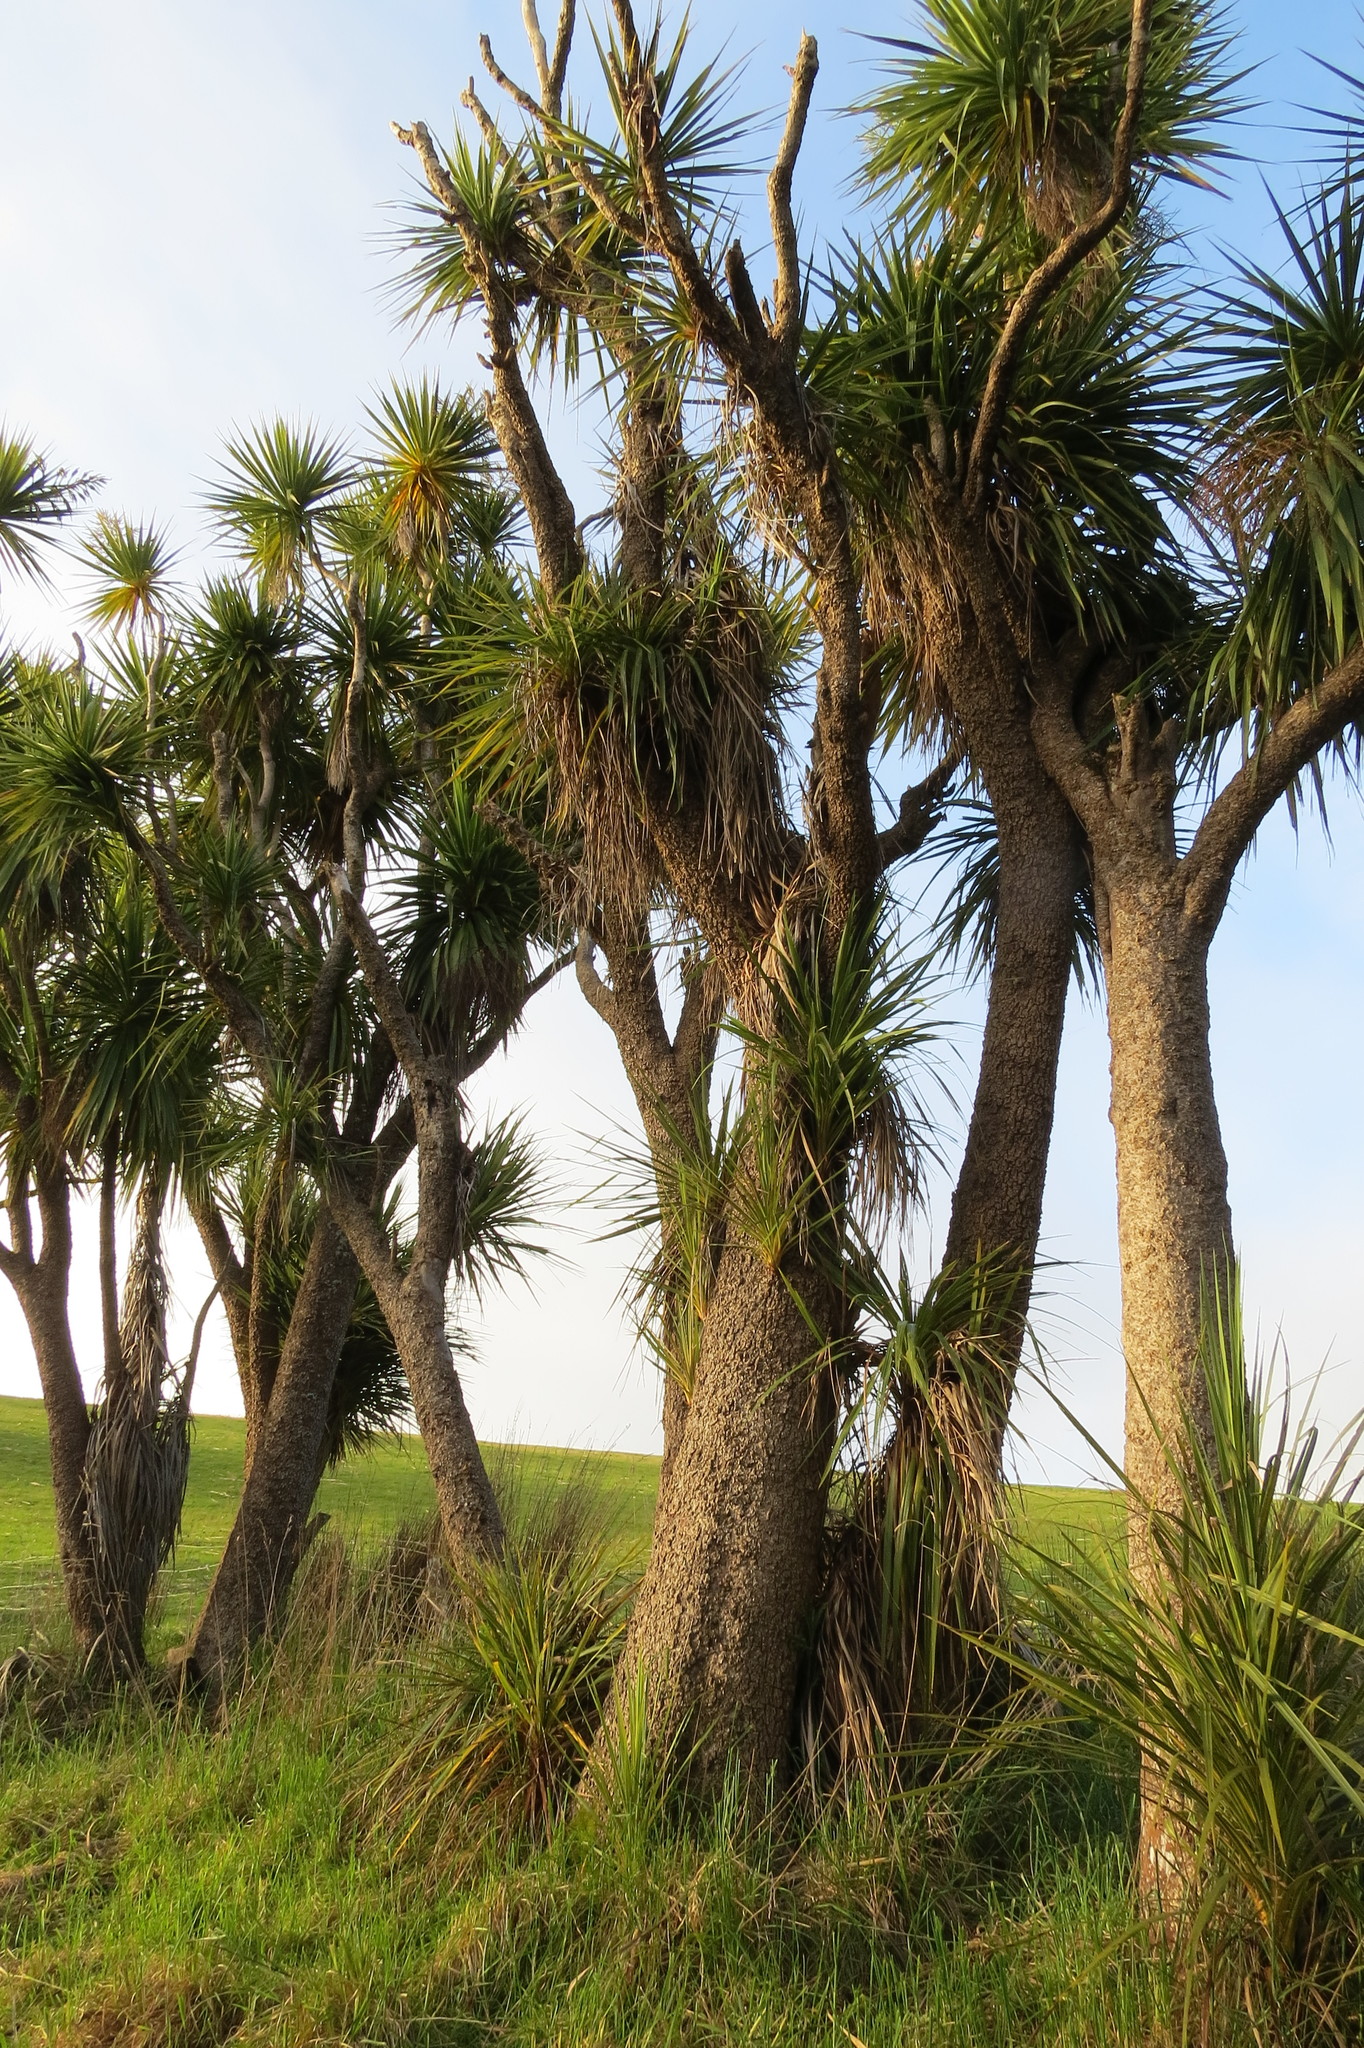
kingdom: Plantae
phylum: Tracheophyta
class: Liliopsida
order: Asparagales
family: Asparagaceae
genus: Cordyline
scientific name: Cordyline australis
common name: Cabbage-palm
